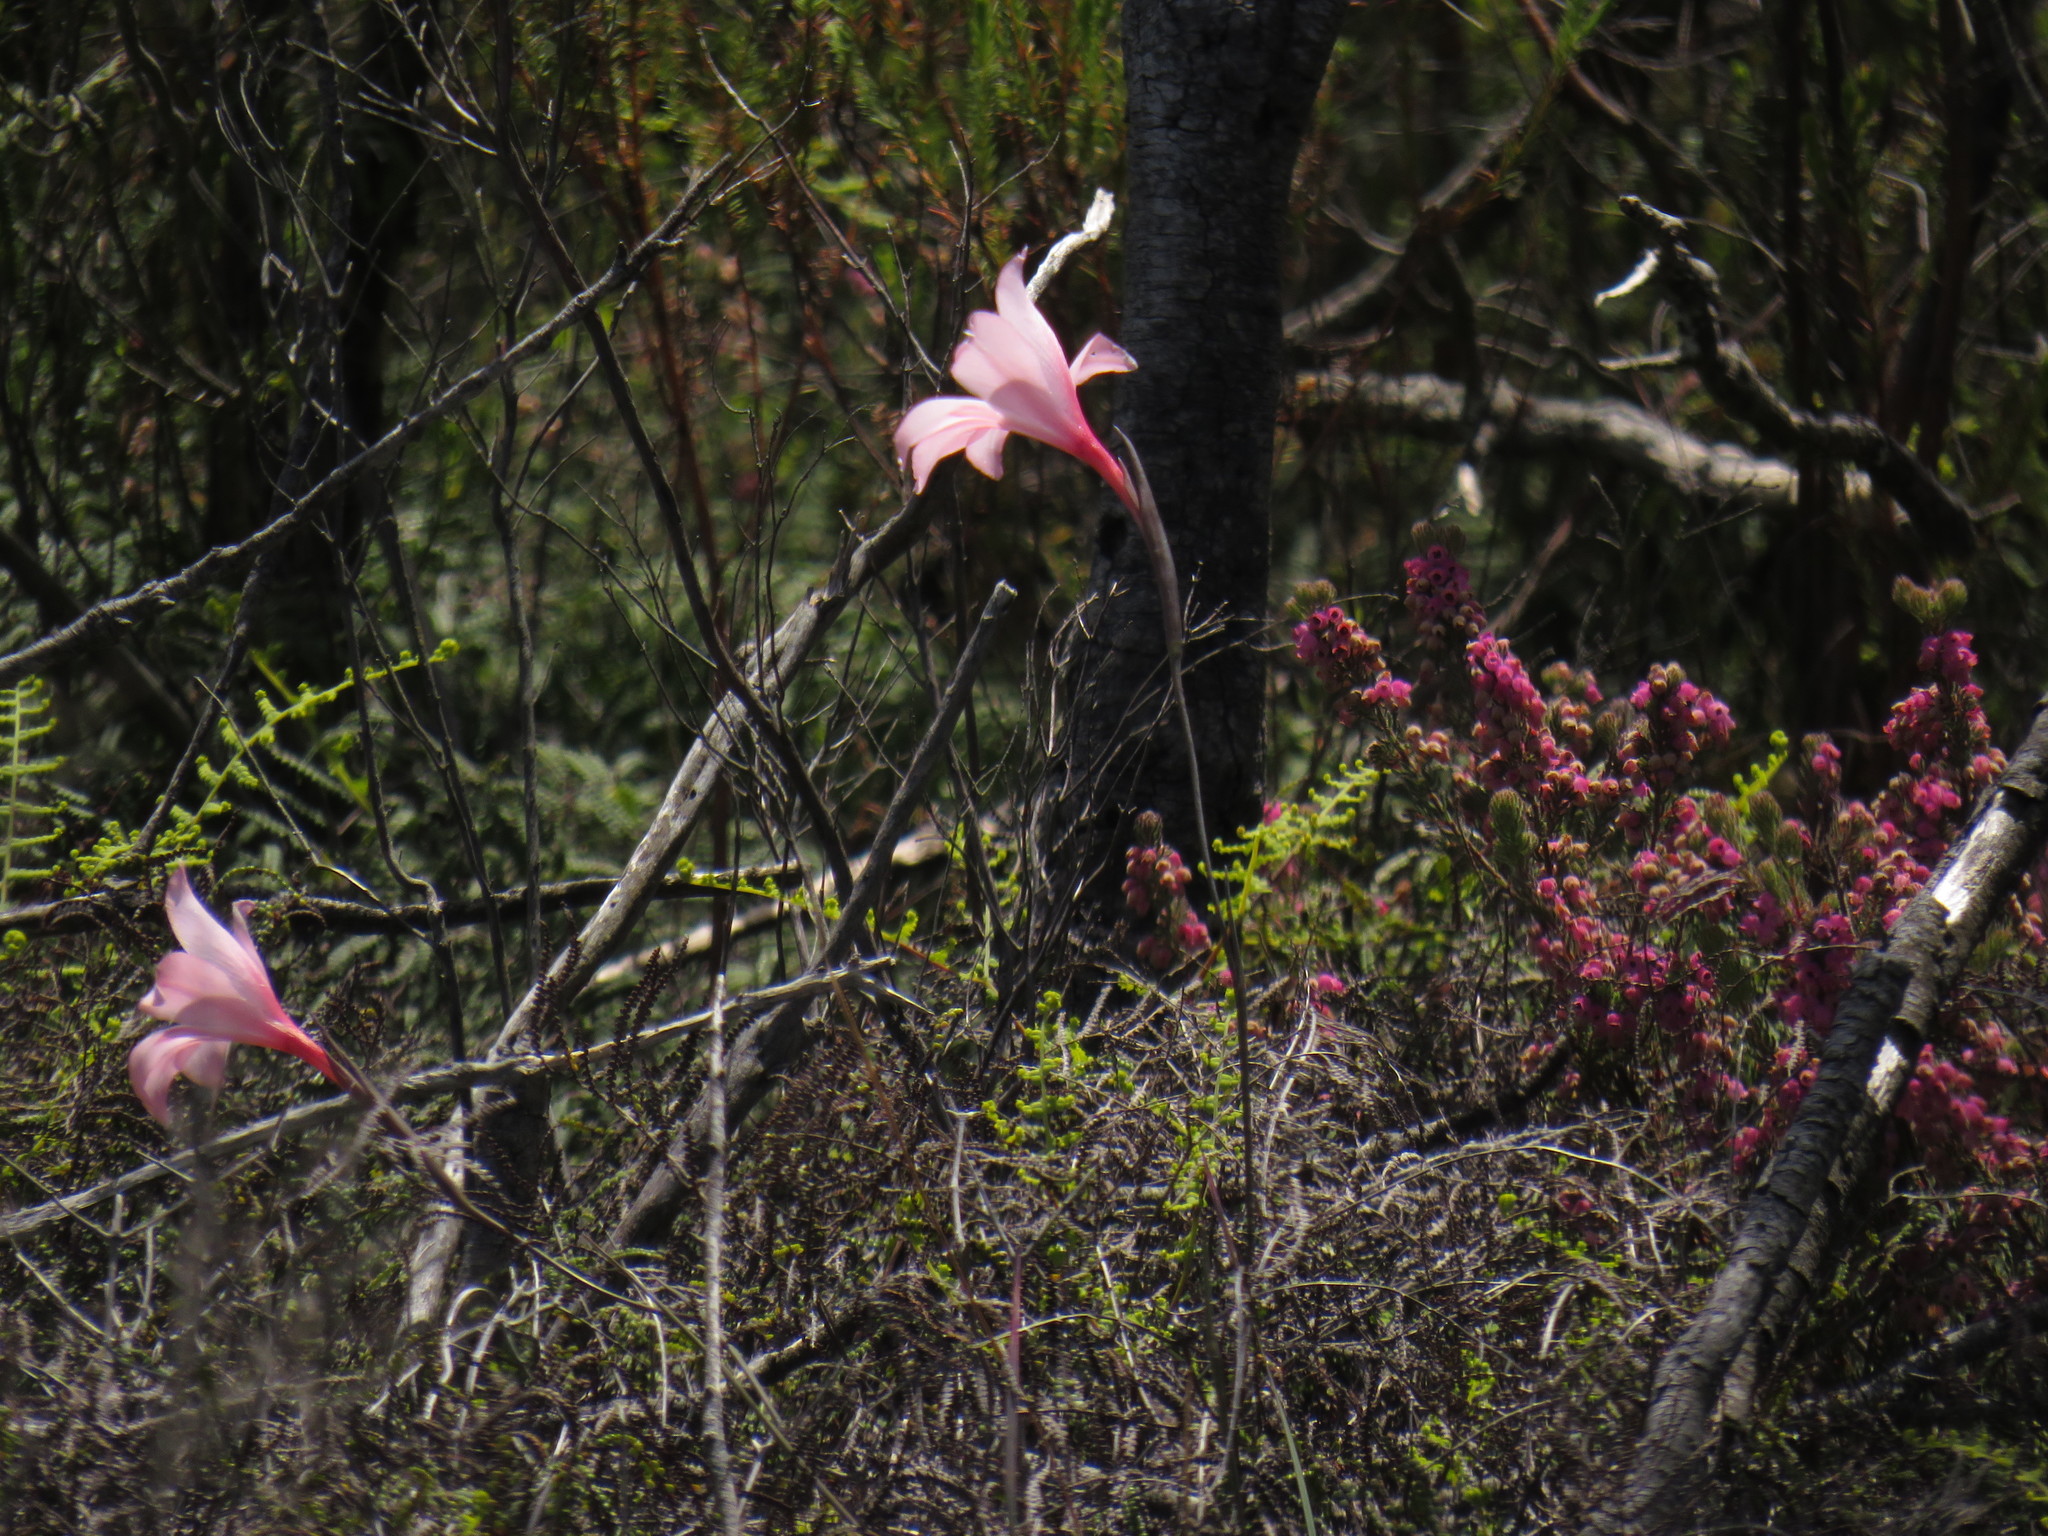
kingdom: Plantae
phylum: Tracheophyta
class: Liliopsida
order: Asparagales
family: Iridaceae
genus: Gladiolus
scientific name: Gladiolus pappei
